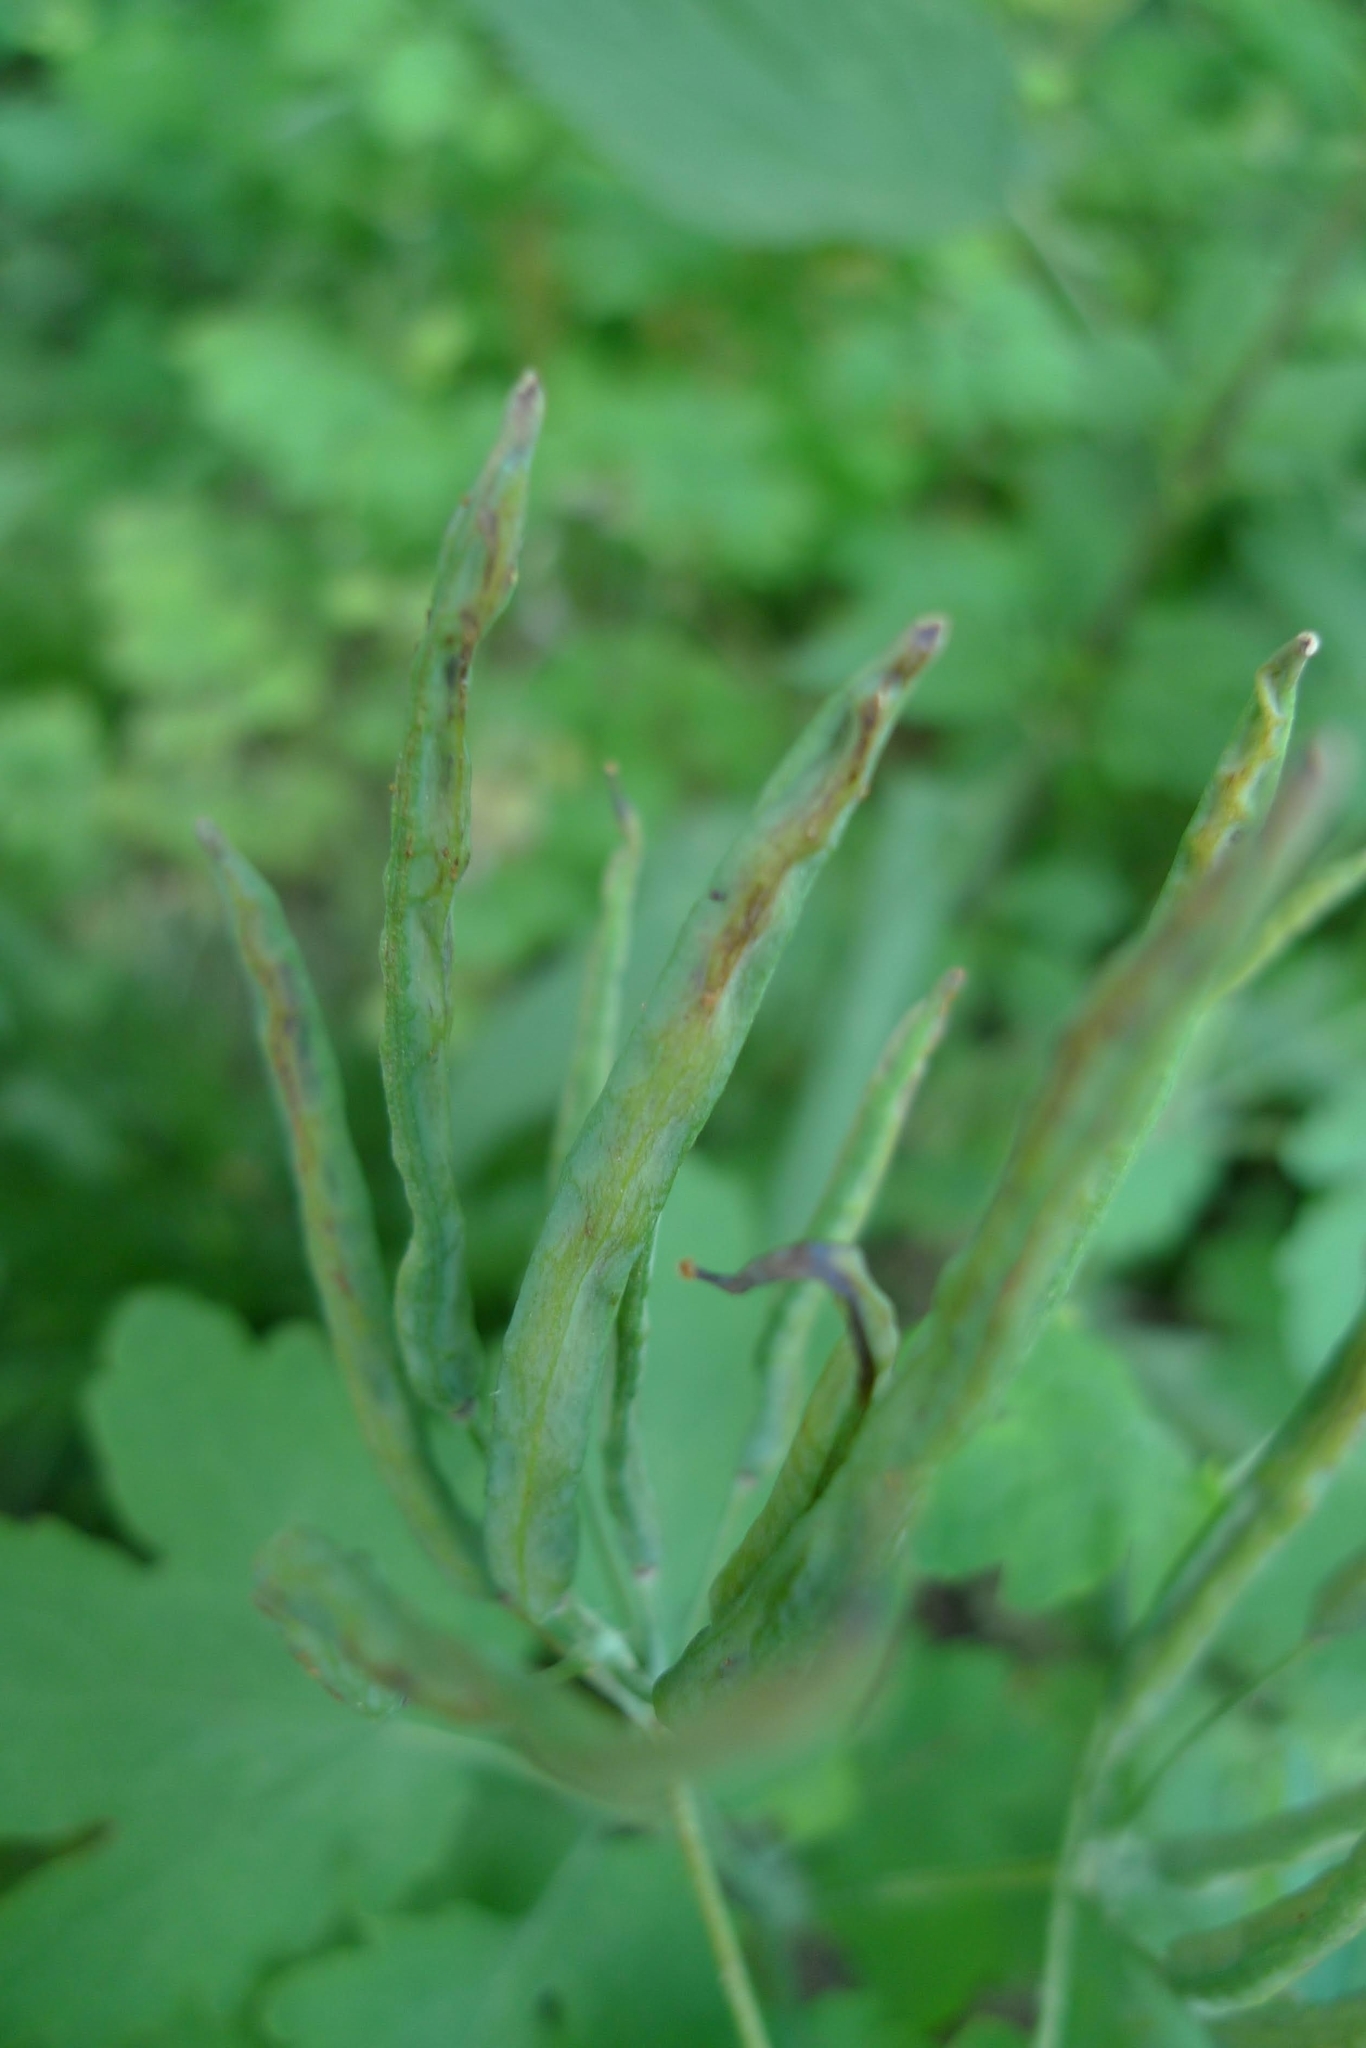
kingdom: Plantae
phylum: Tracheophyta
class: Magnoliopsida
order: Ranunculales
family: Papaveraceae
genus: Chelidonium
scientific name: Chelidonium majus
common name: Greater celandine
